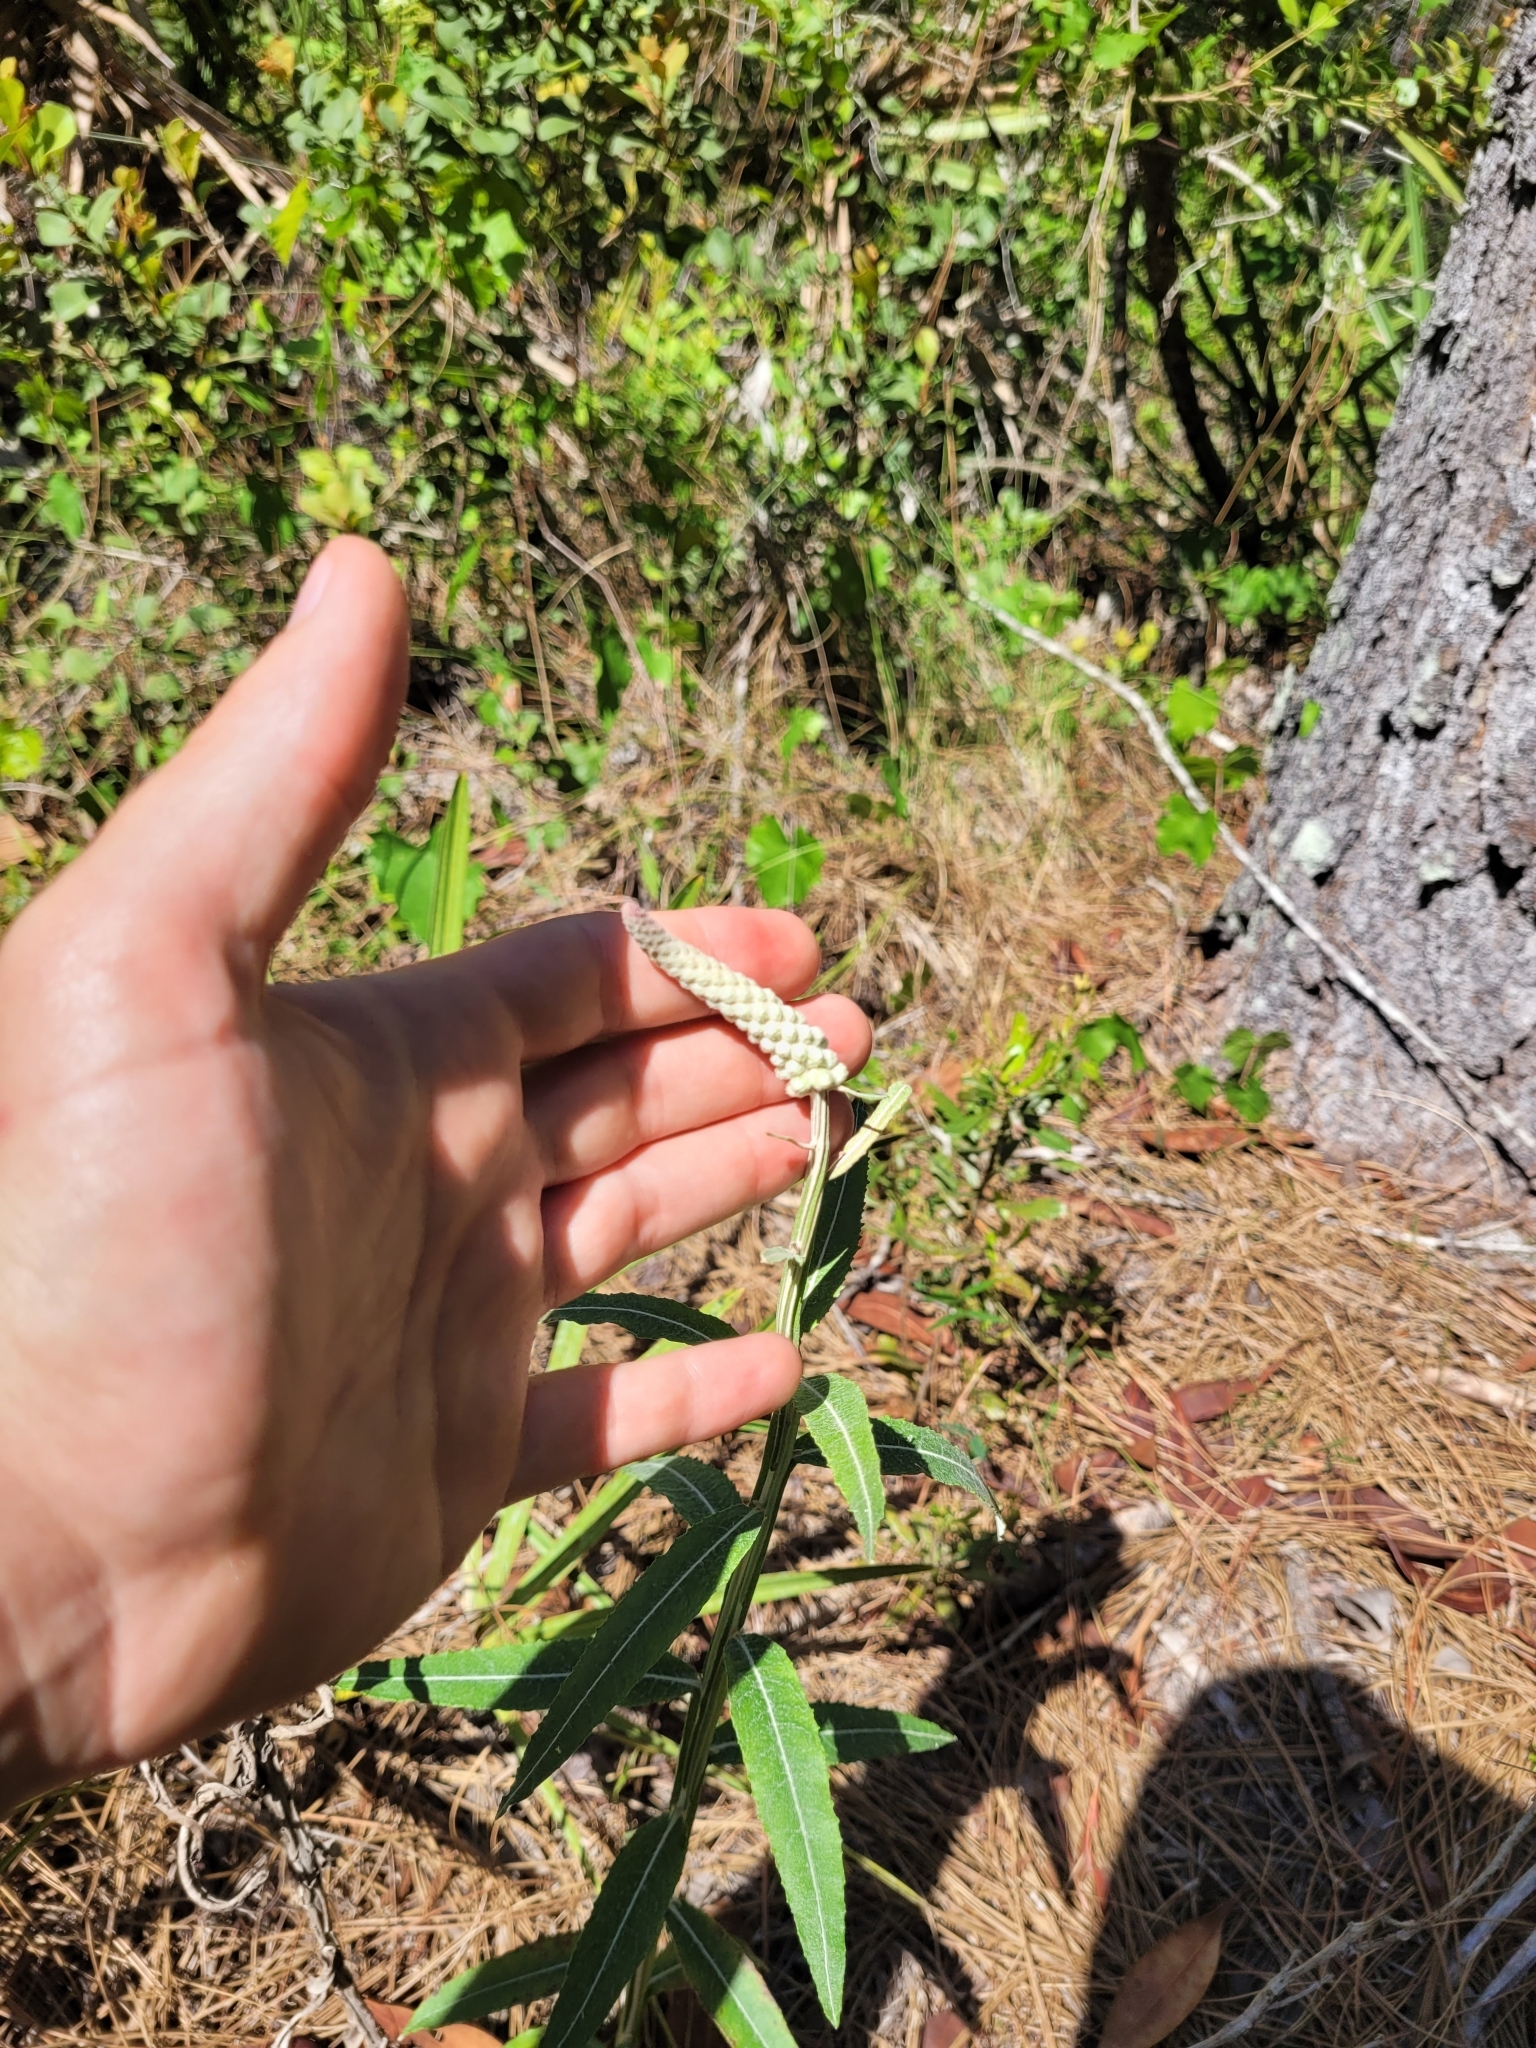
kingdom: Plantae
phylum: Tracheophyta
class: Magnoliopsida
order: Asterales
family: Asteraceae
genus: Pterocaulon
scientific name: Pterocaulon pycnostachyum
